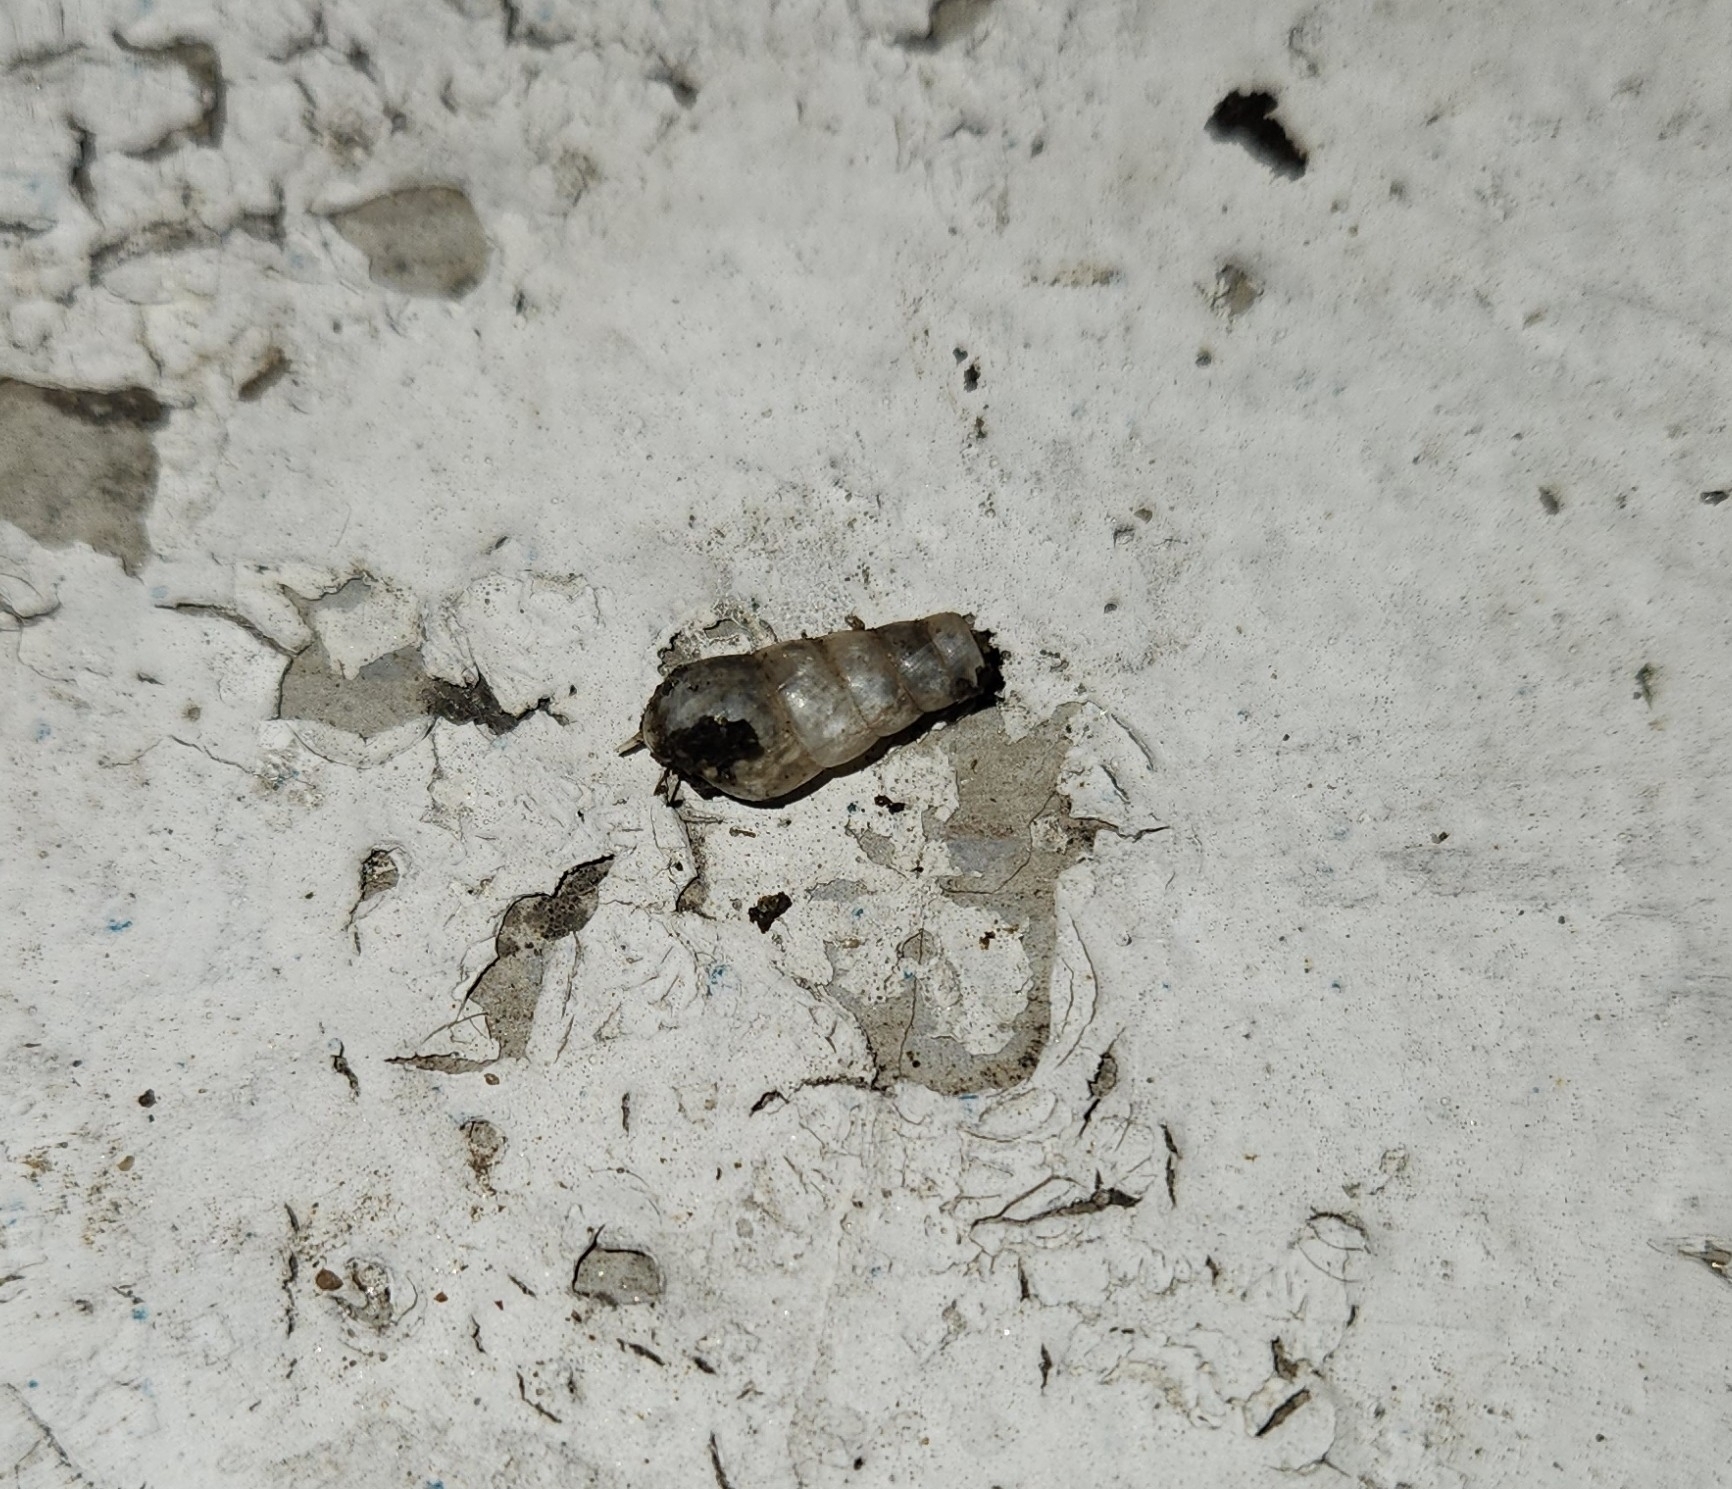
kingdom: Animalia
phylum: Mollusca
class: Gastropoda
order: Stylommatophora
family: Achatinidae
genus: Rumina
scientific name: Rumina decollata
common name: Decollate snail
